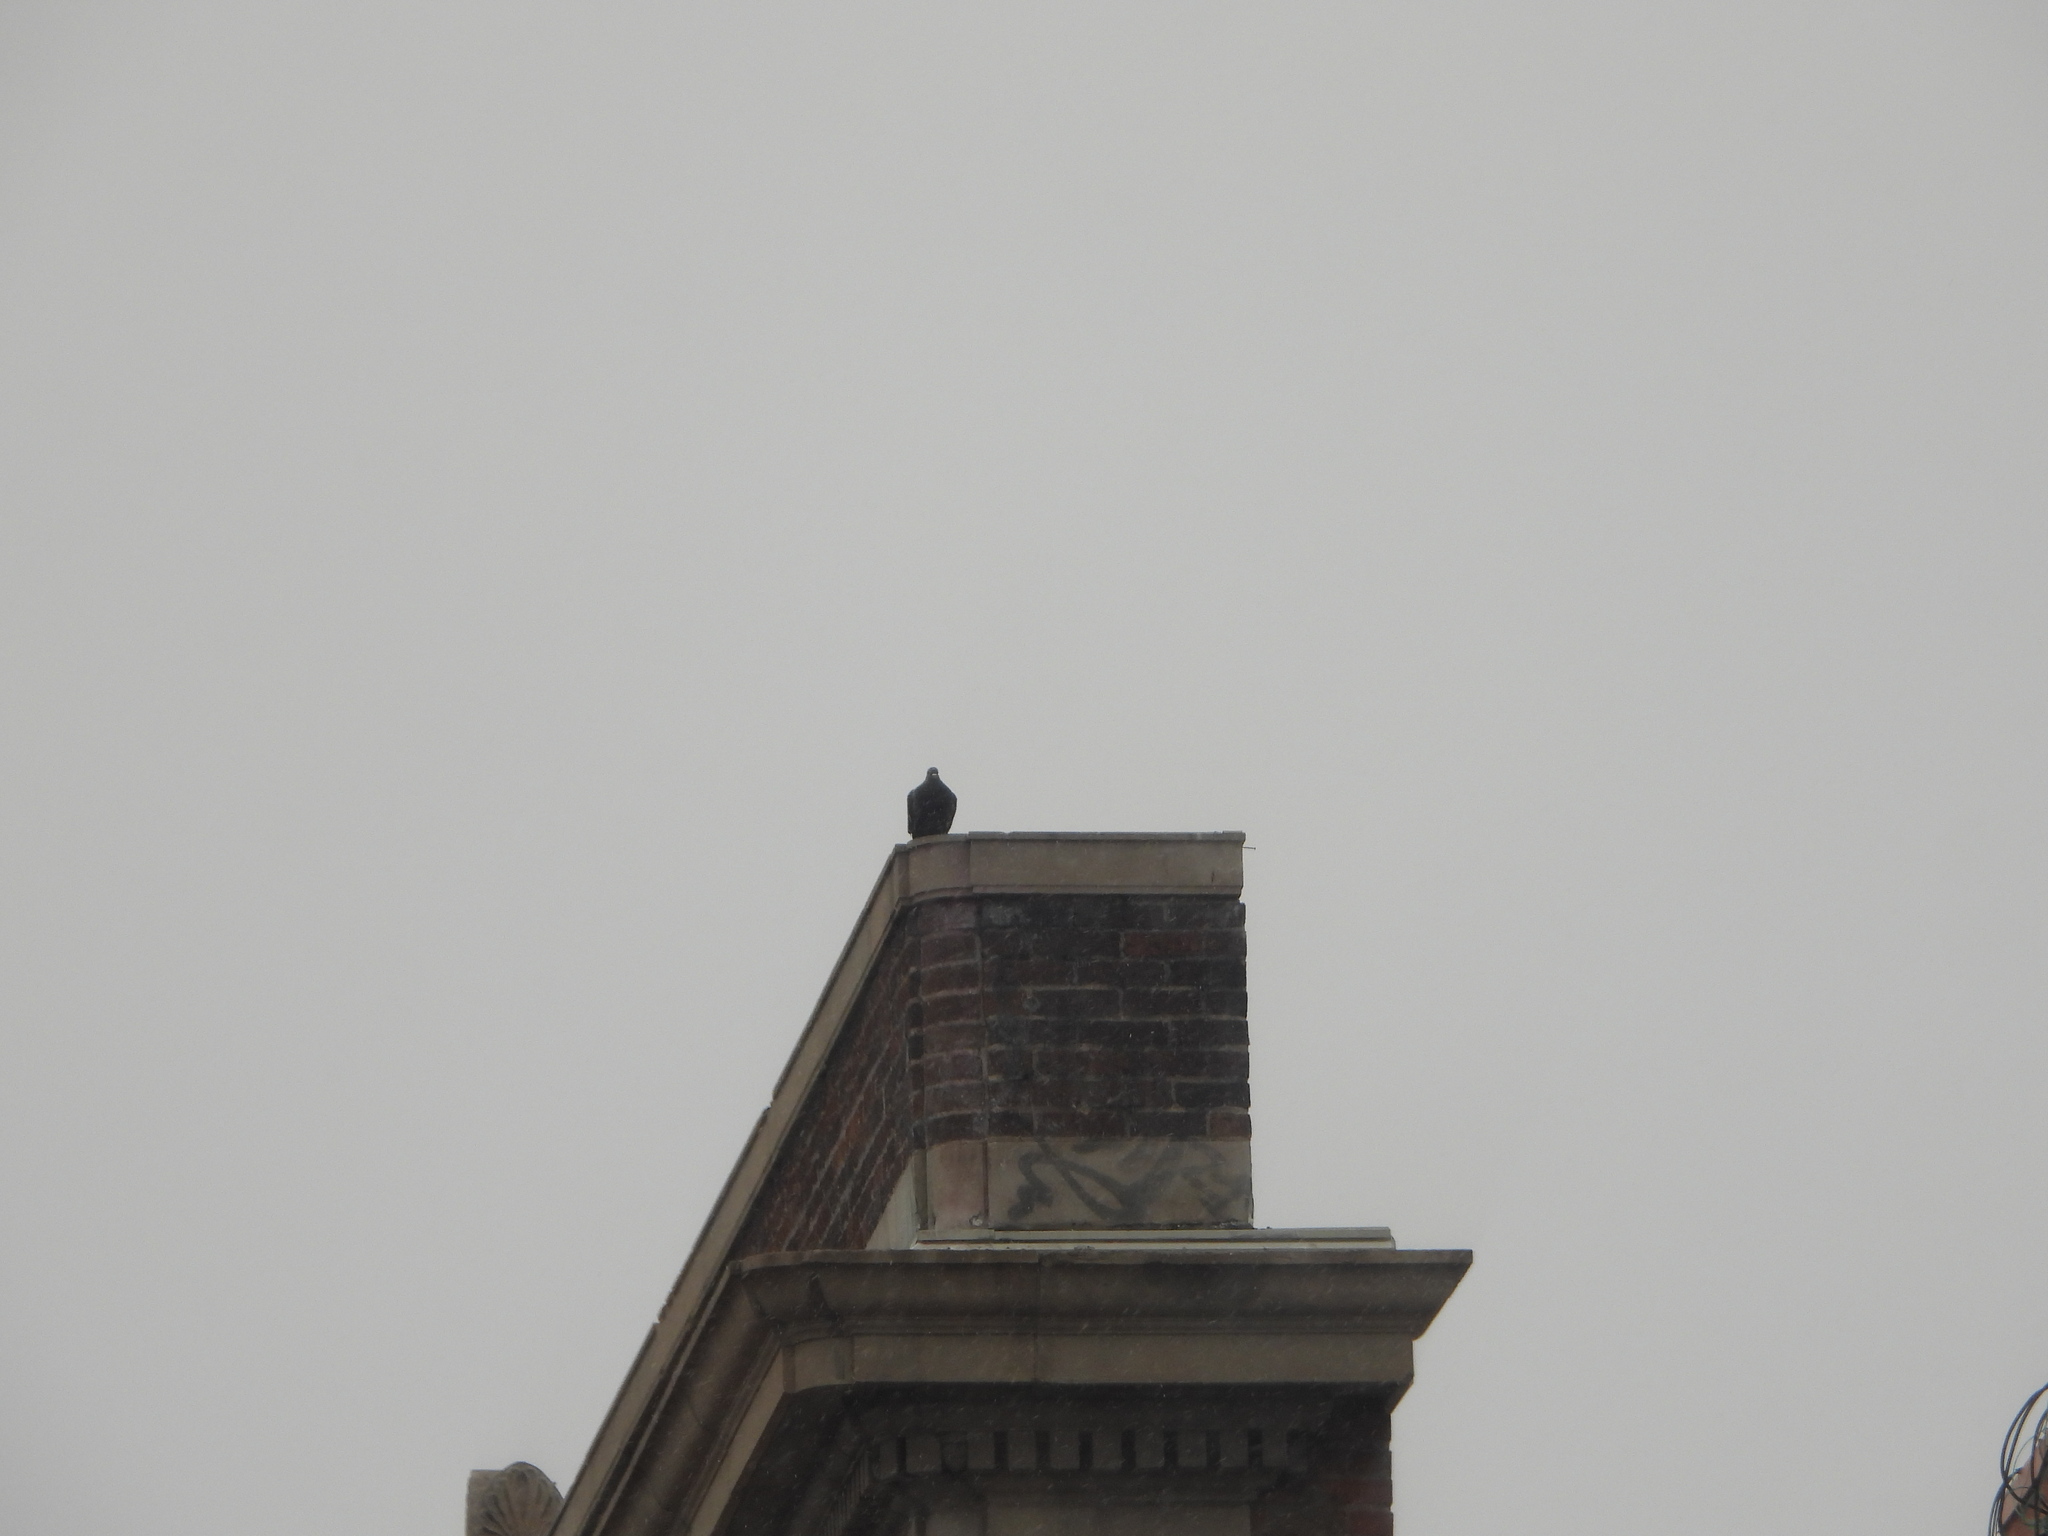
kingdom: Animalia
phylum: Chordata
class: Aves
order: Columbiformes
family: Columbidae
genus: Columba
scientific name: Columba livia
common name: Rock pigeon
